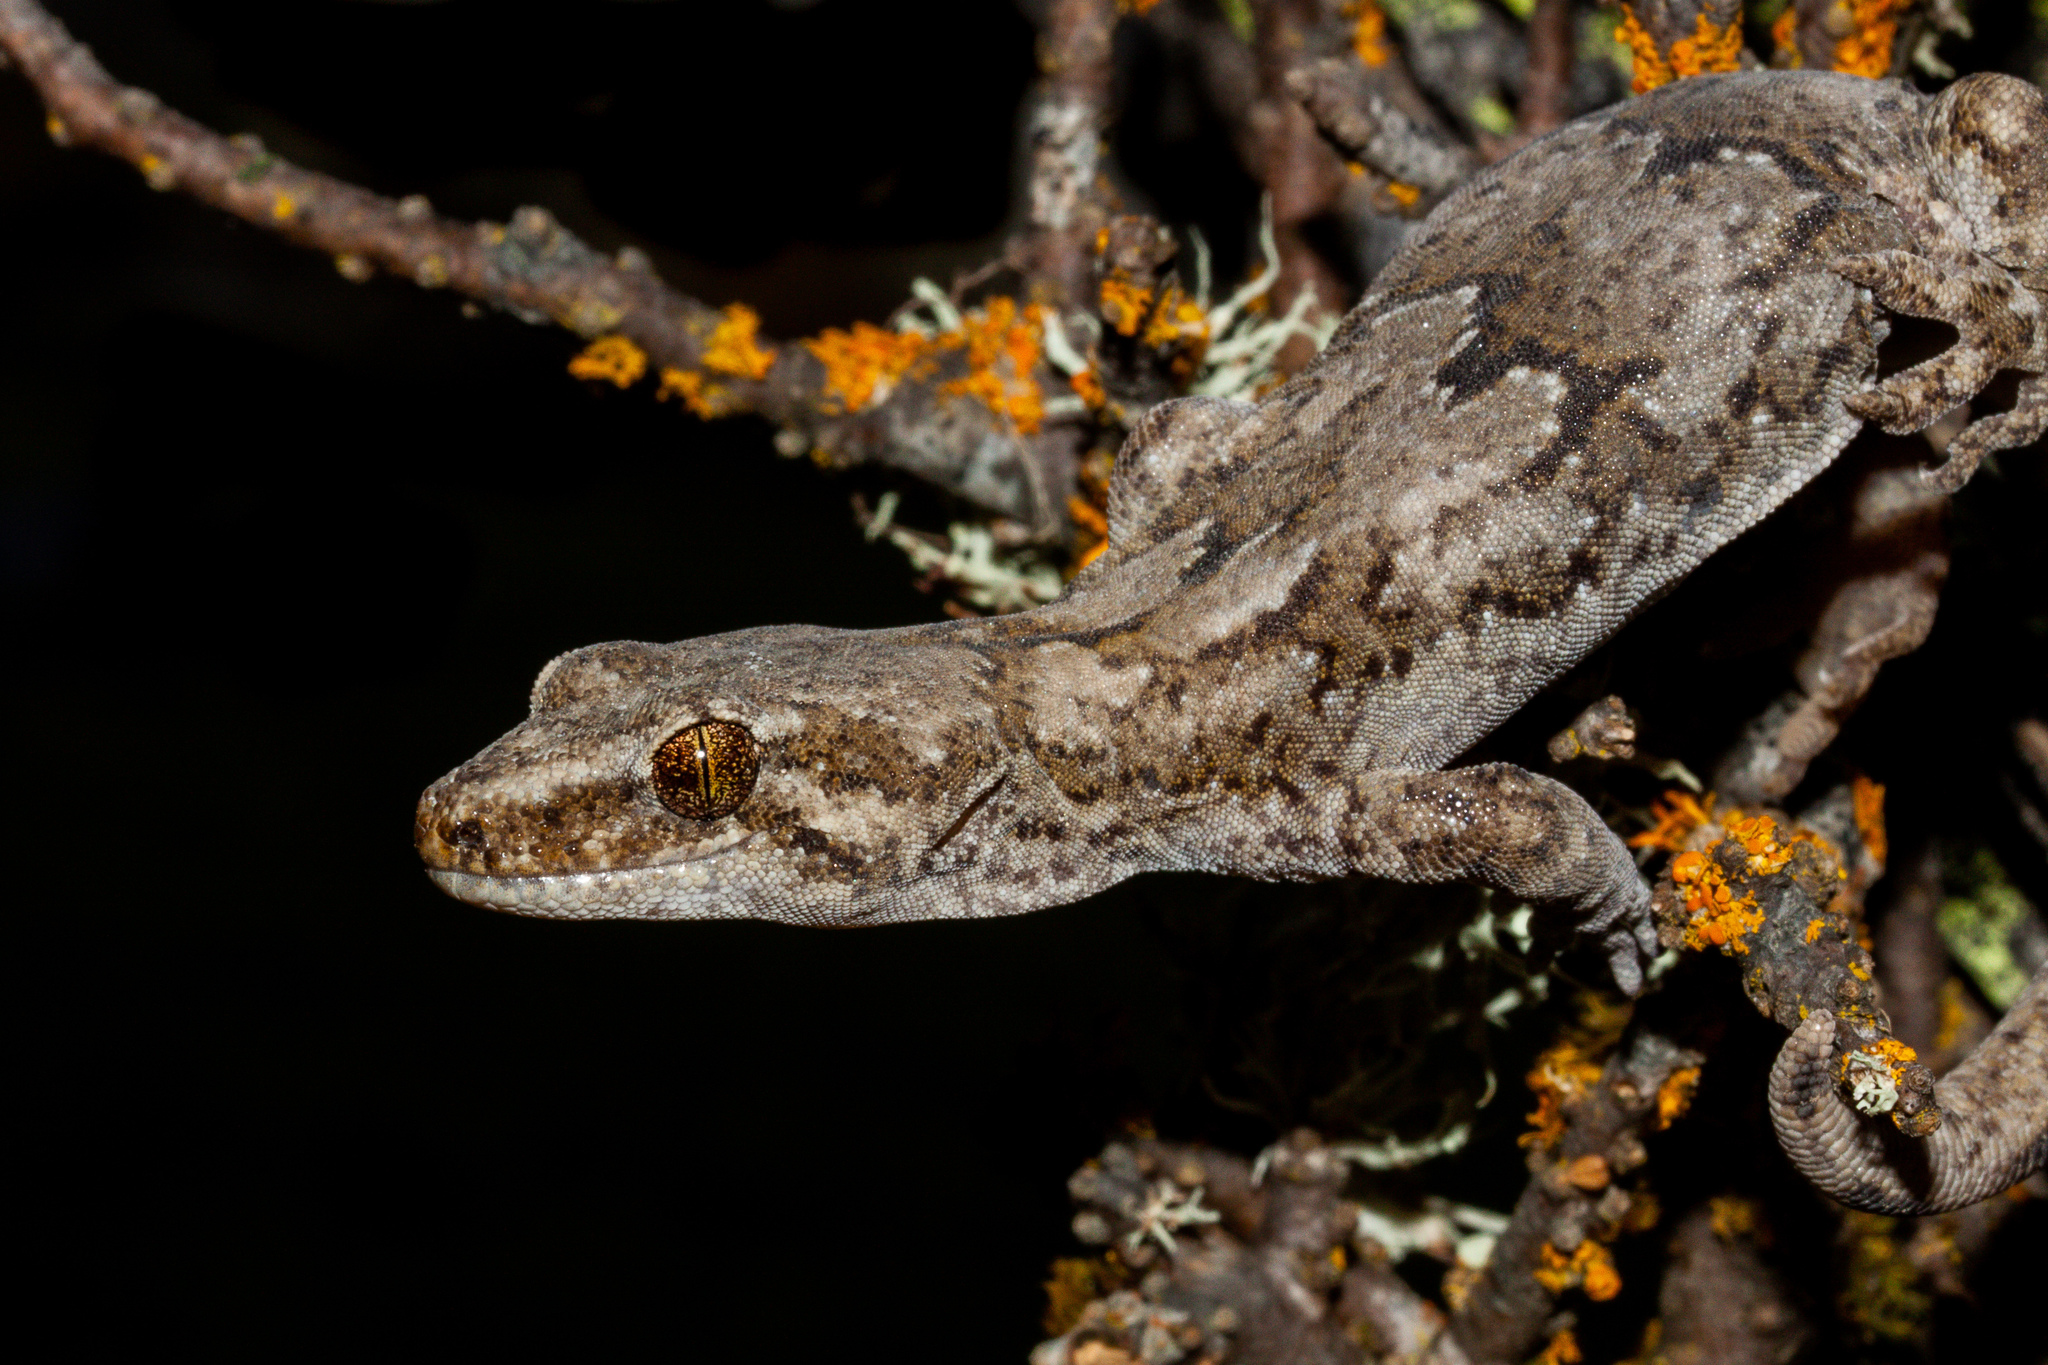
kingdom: Animalia
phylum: Chordata
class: Squamata
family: Diplodactylidae
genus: Woodworthia
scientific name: Woodworthia
